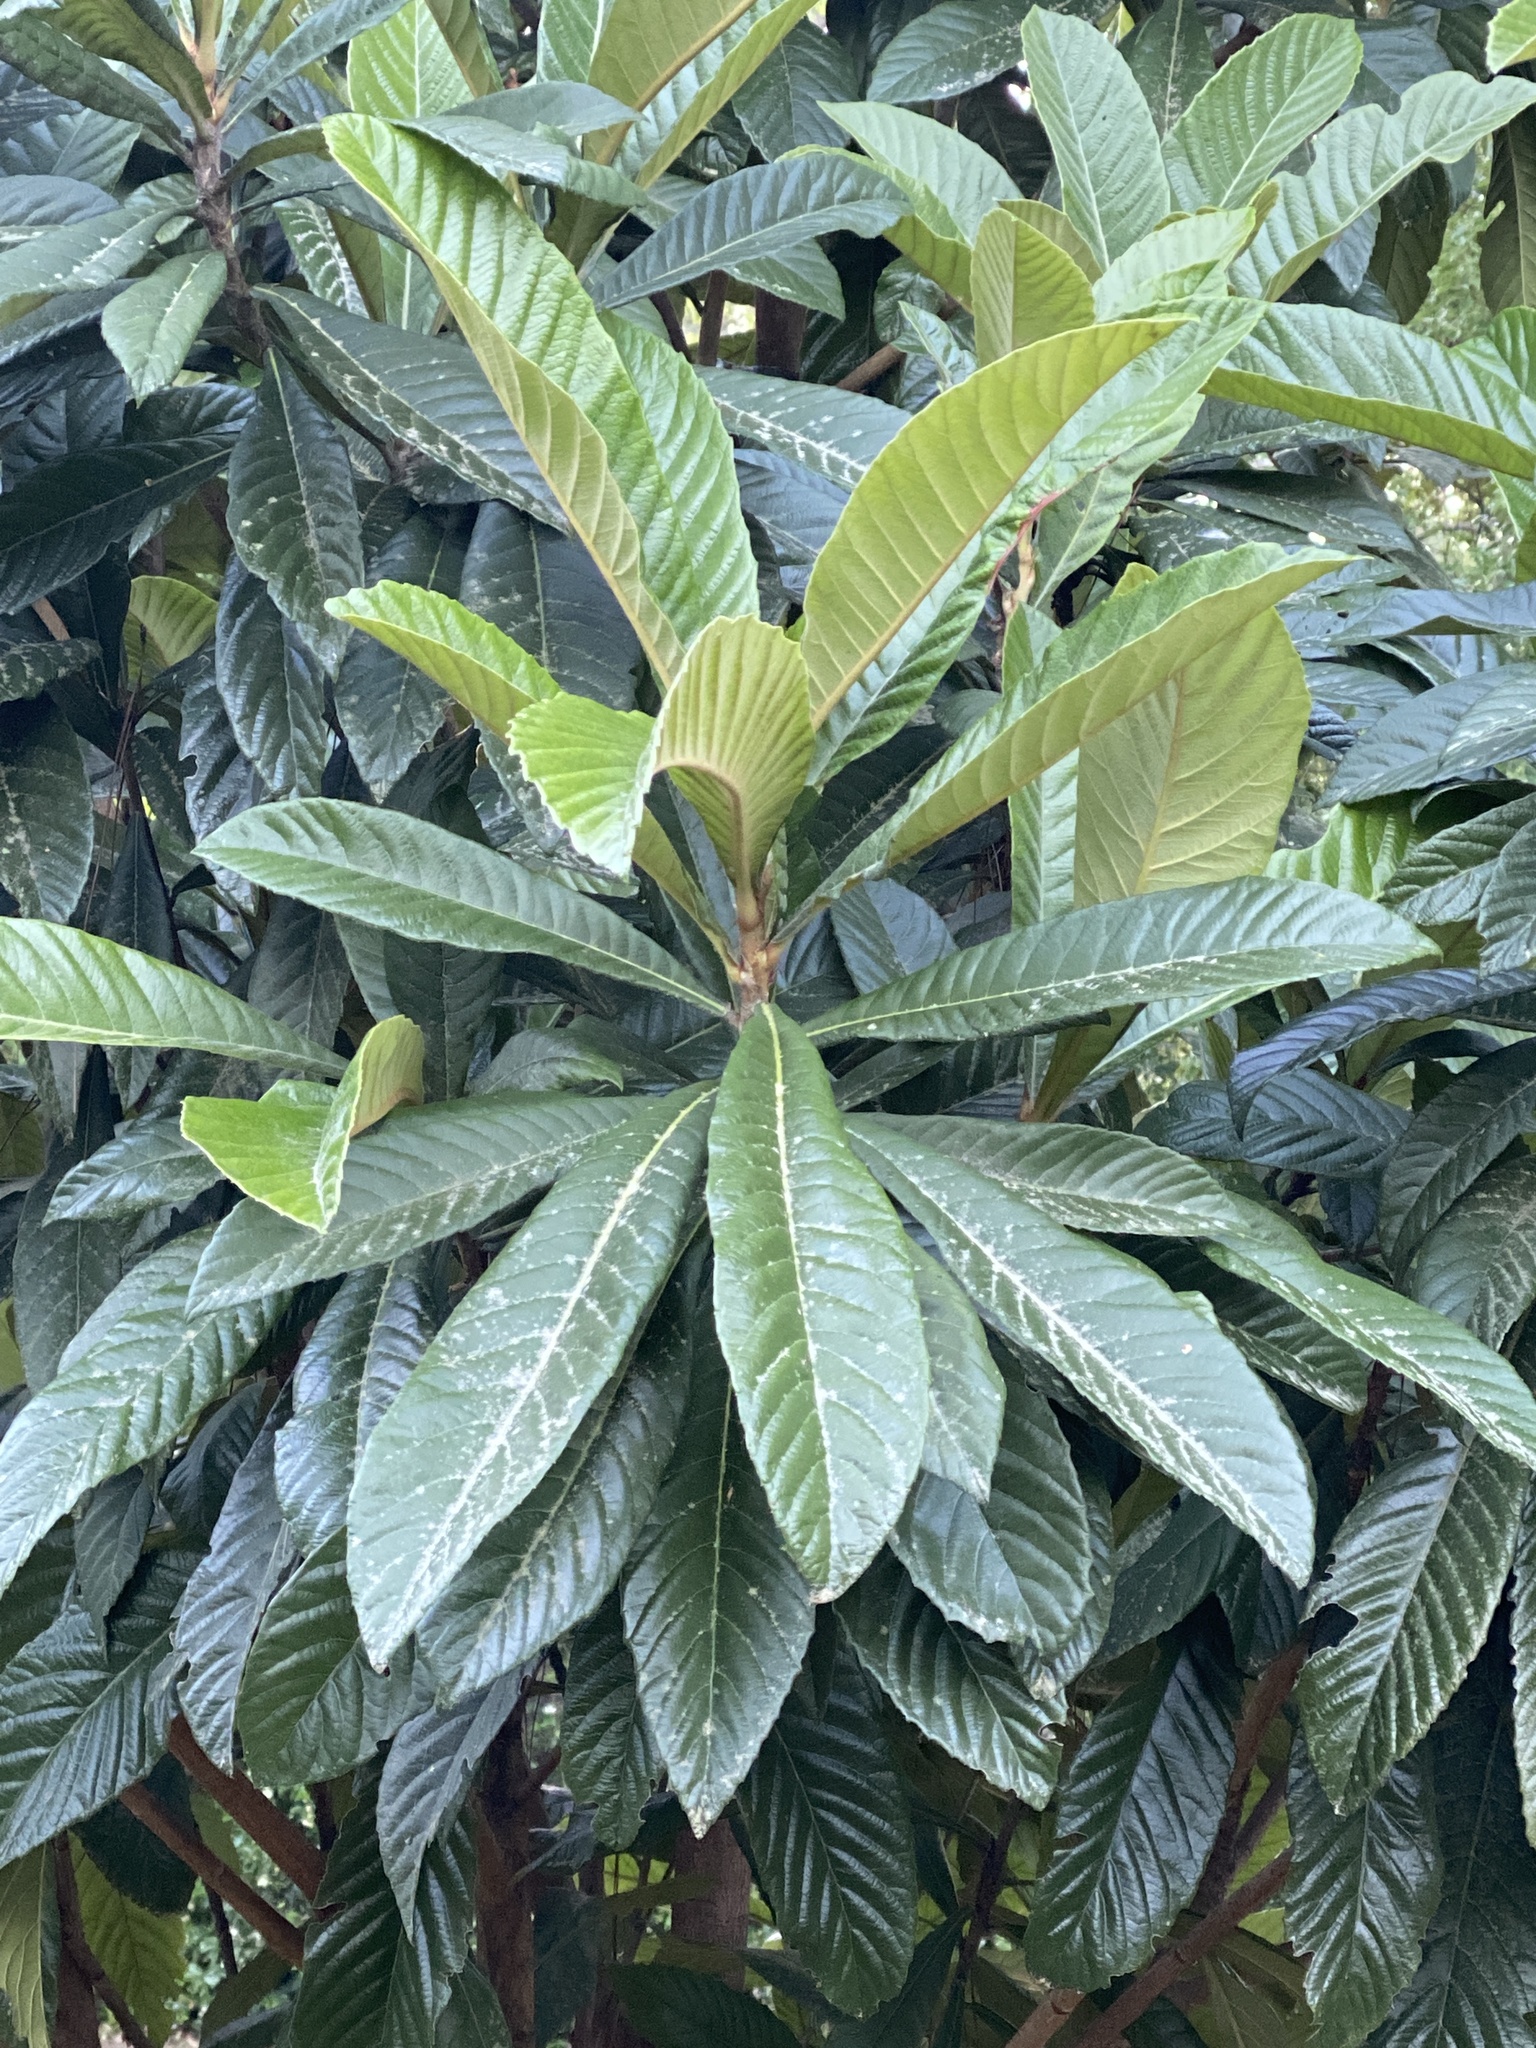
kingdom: Plantae
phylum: Tracheophyta
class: Magnoliopsida
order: Rosales
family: Rosaceae
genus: Rhaphiolepis
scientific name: Rhaphiolepis bibas
